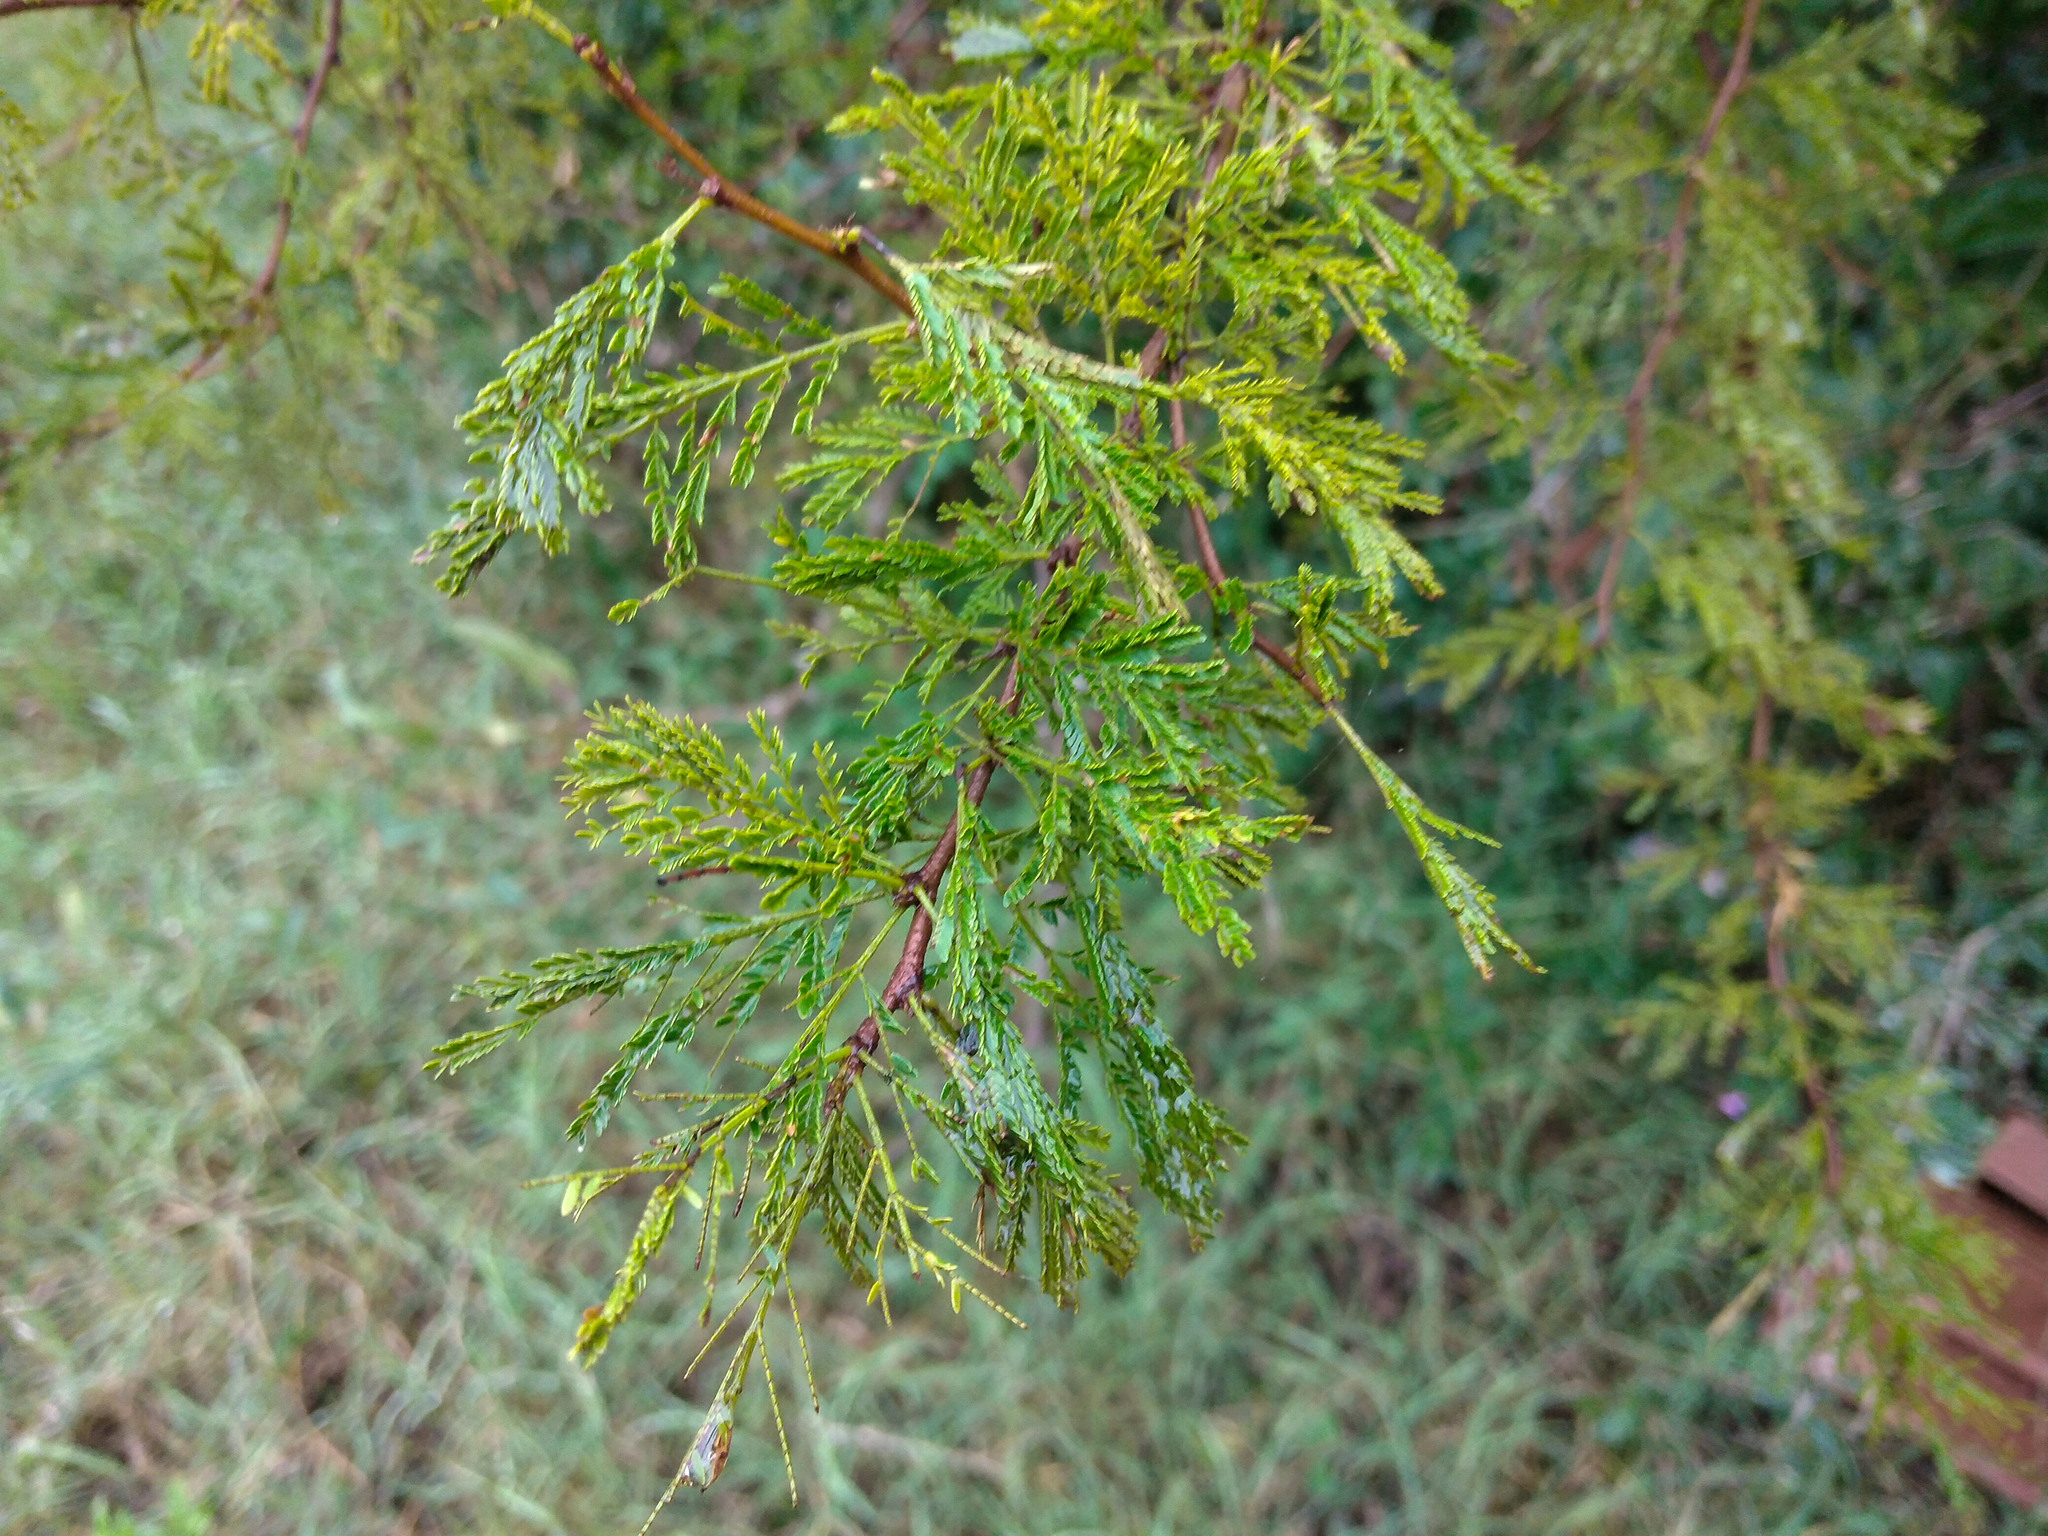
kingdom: Plantae
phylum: Tracheophyta
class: Magnoliopsida
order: Fabales
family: Fabaceae
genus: Vachellia
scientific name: Vachellia caven
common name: Roman cassie
